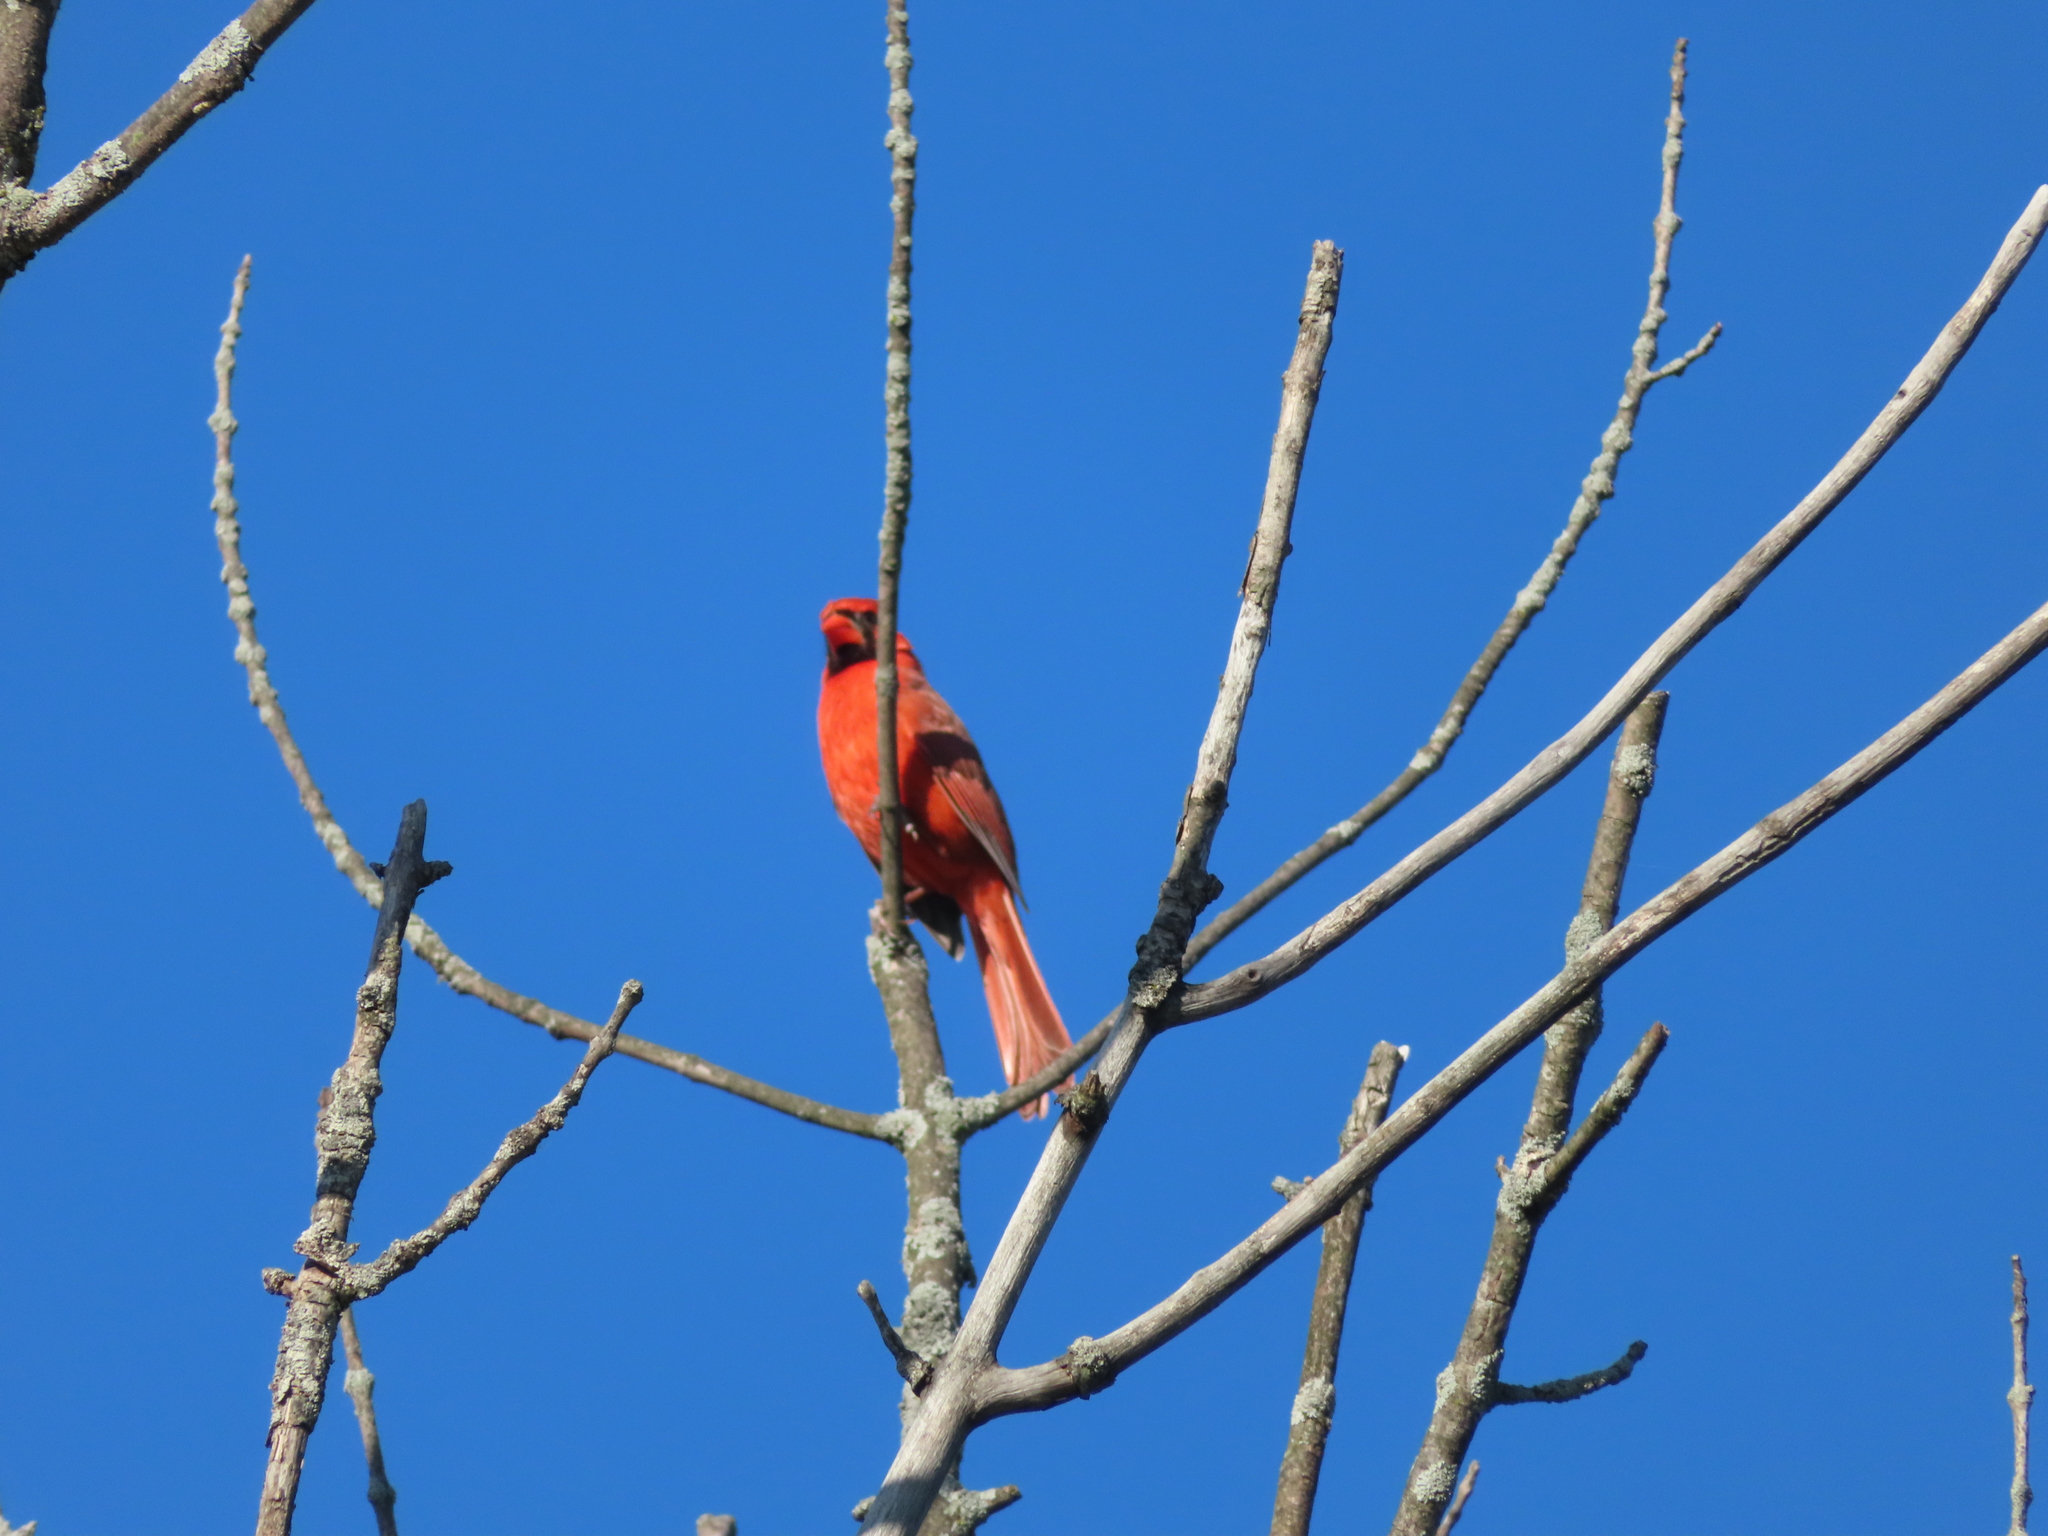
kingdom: Animalia
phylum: Chordata
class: Aves
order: Passeriformes
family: Cardinalidae
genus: Cardinalis
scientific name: Cardinalis cardinalis
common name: Northern cardinal
